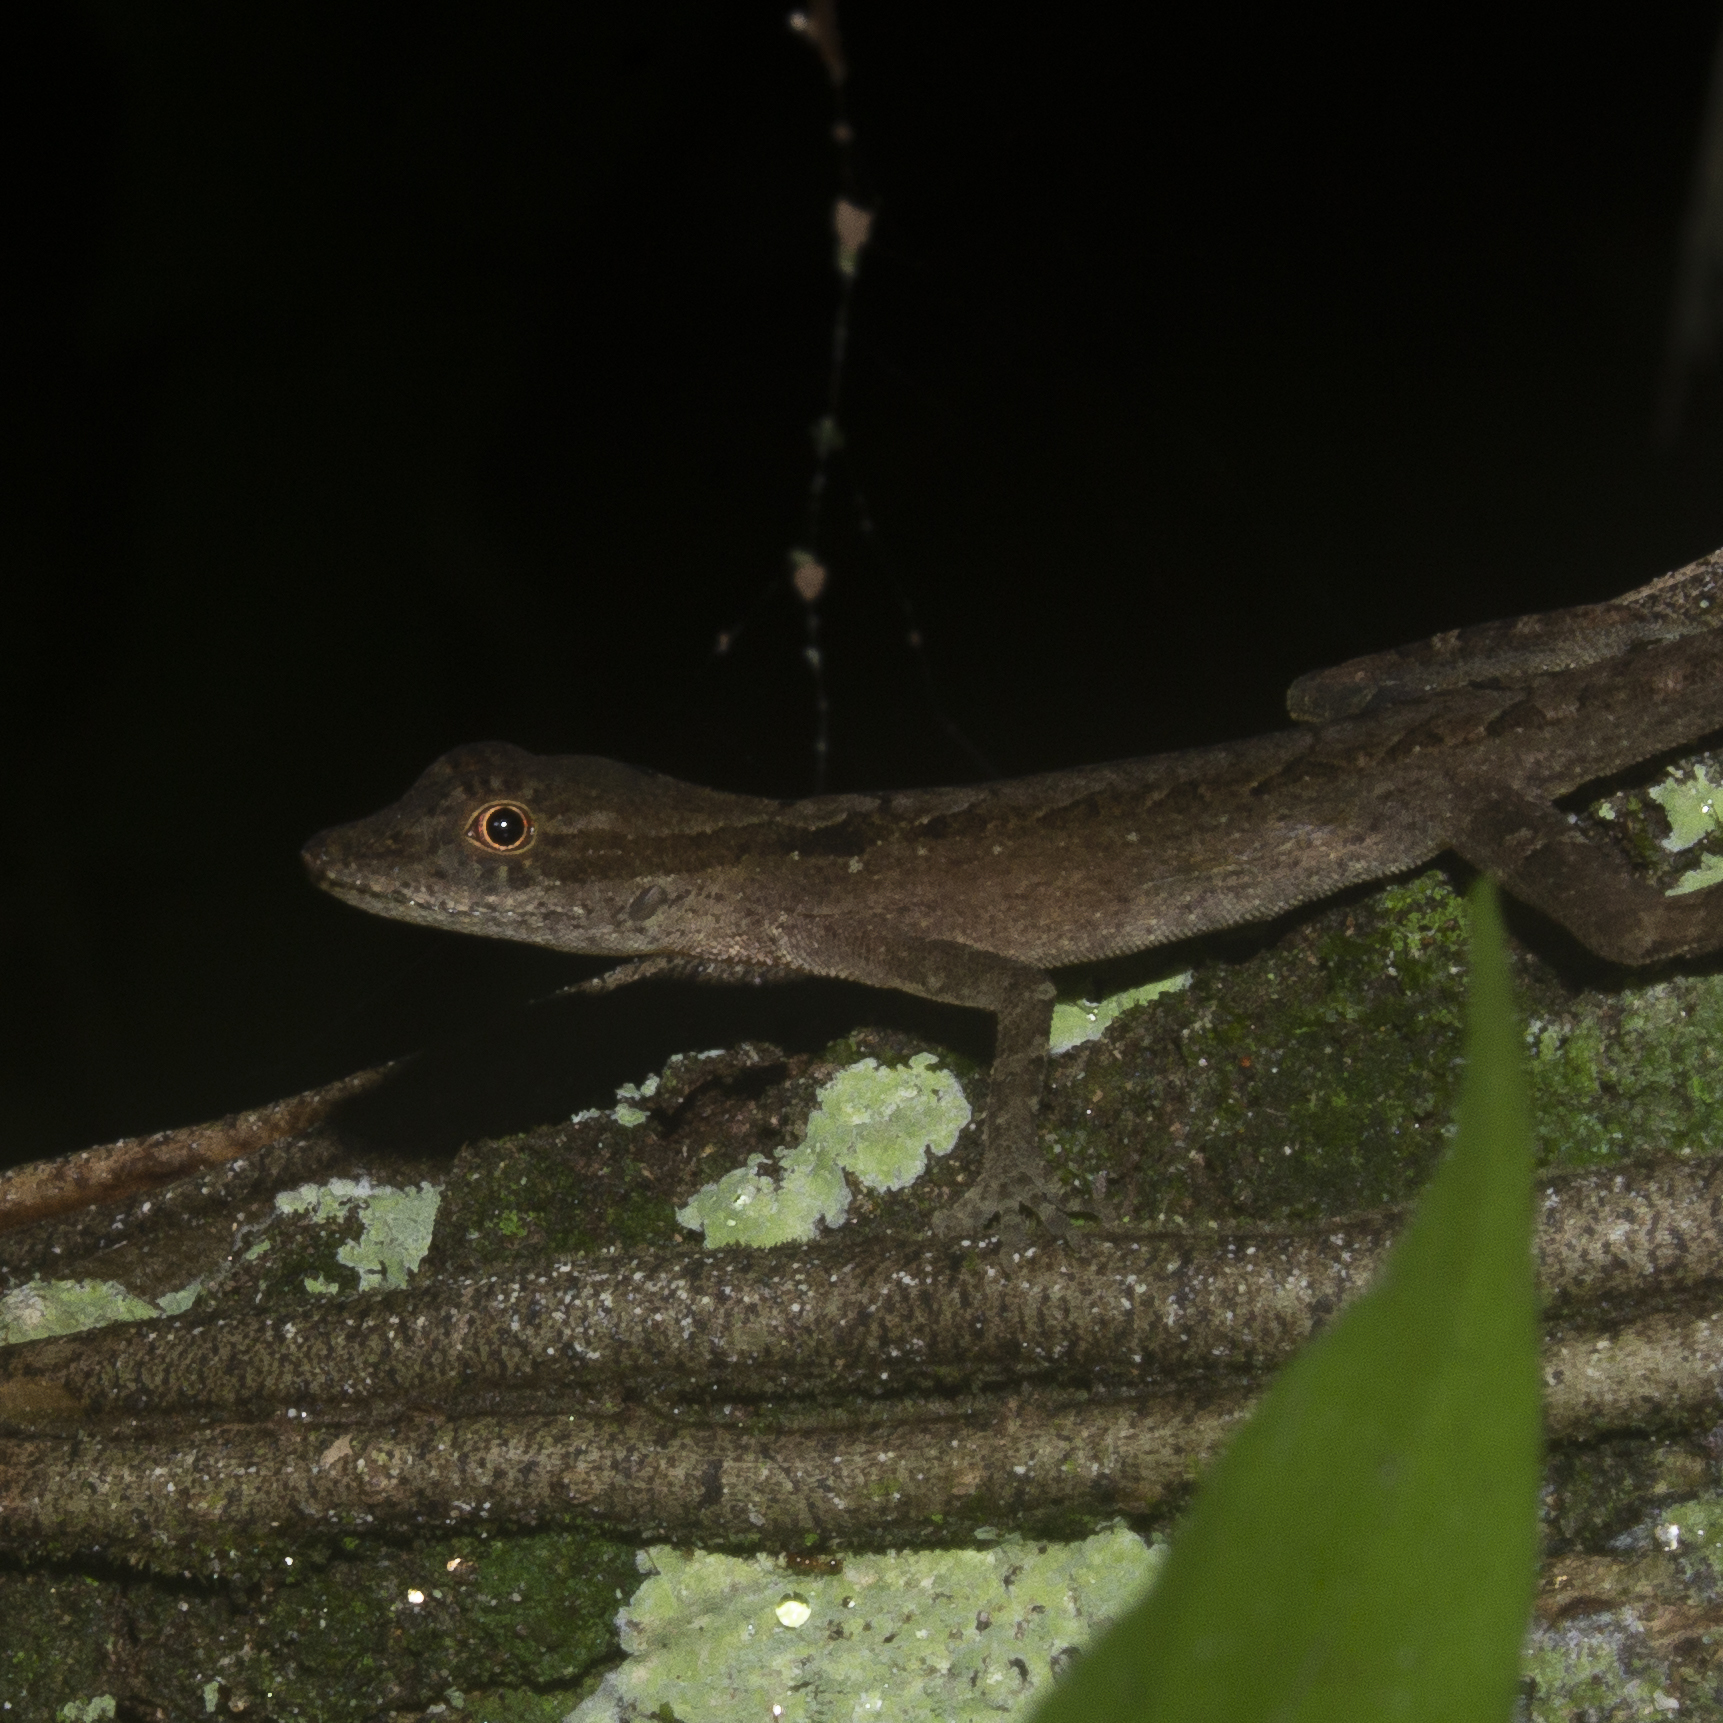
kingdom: Animalia
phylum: Chordata
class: Squamata
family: Dactyloidae
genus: Anolis
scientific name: Anolis gaigei
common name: Gaige’s anole
